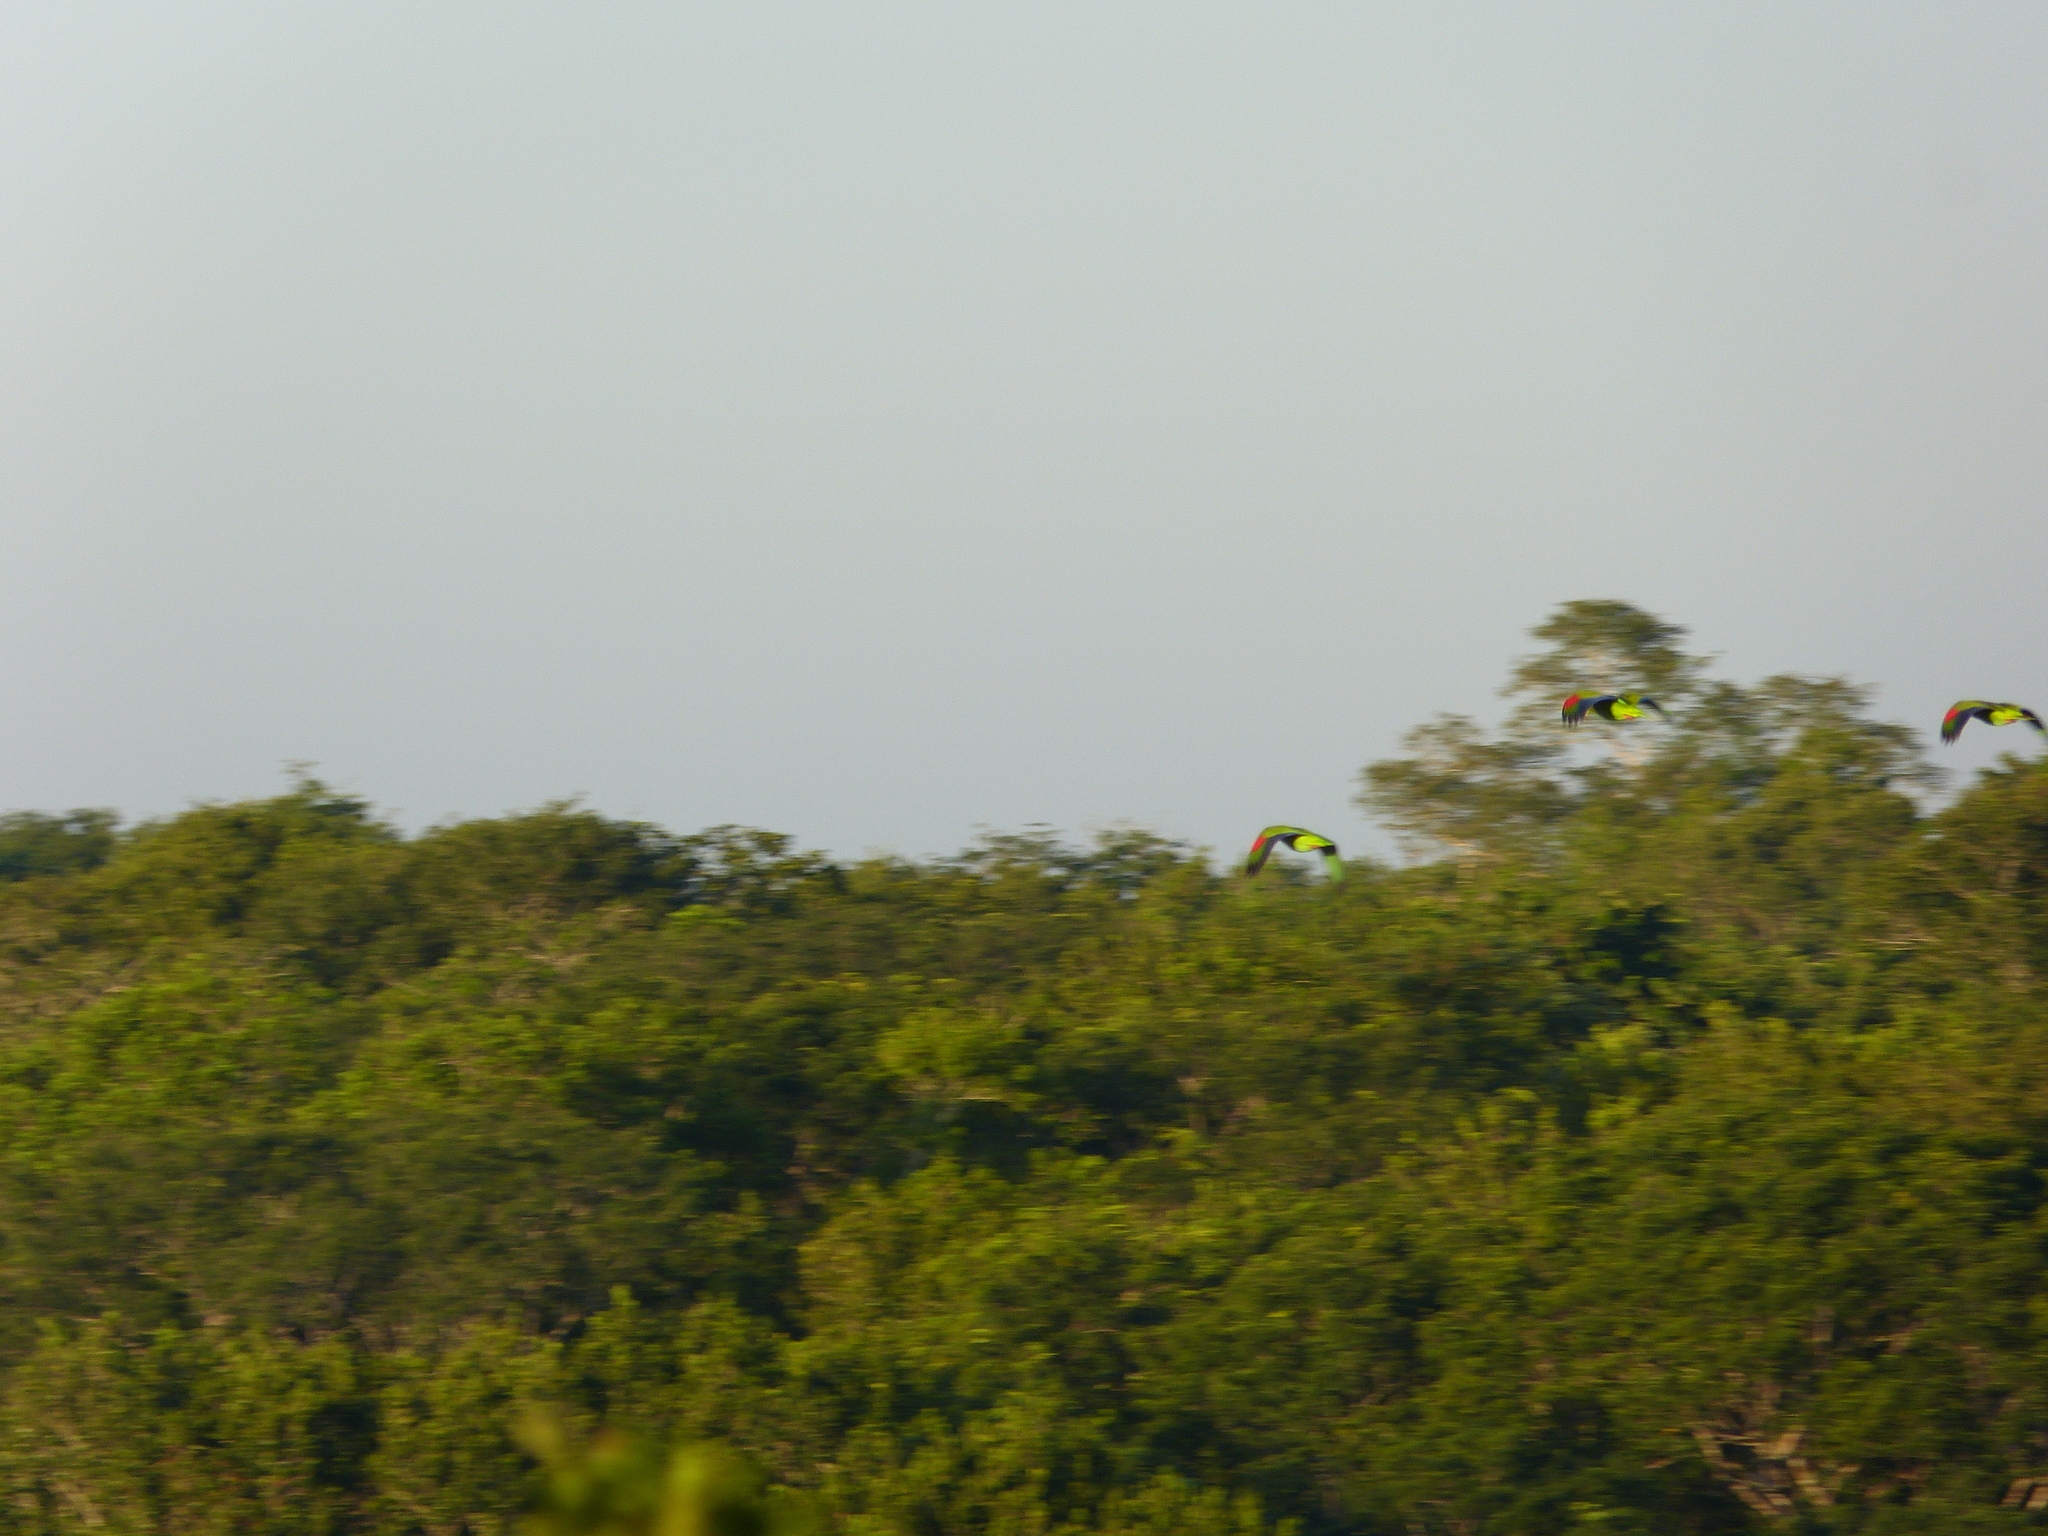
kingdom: Animalia
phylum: Chordata
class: Aves
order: Psittaciformes
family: Psittacidae
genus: Amazona
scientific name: Amazona albifrons
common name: White-fronted amazon
